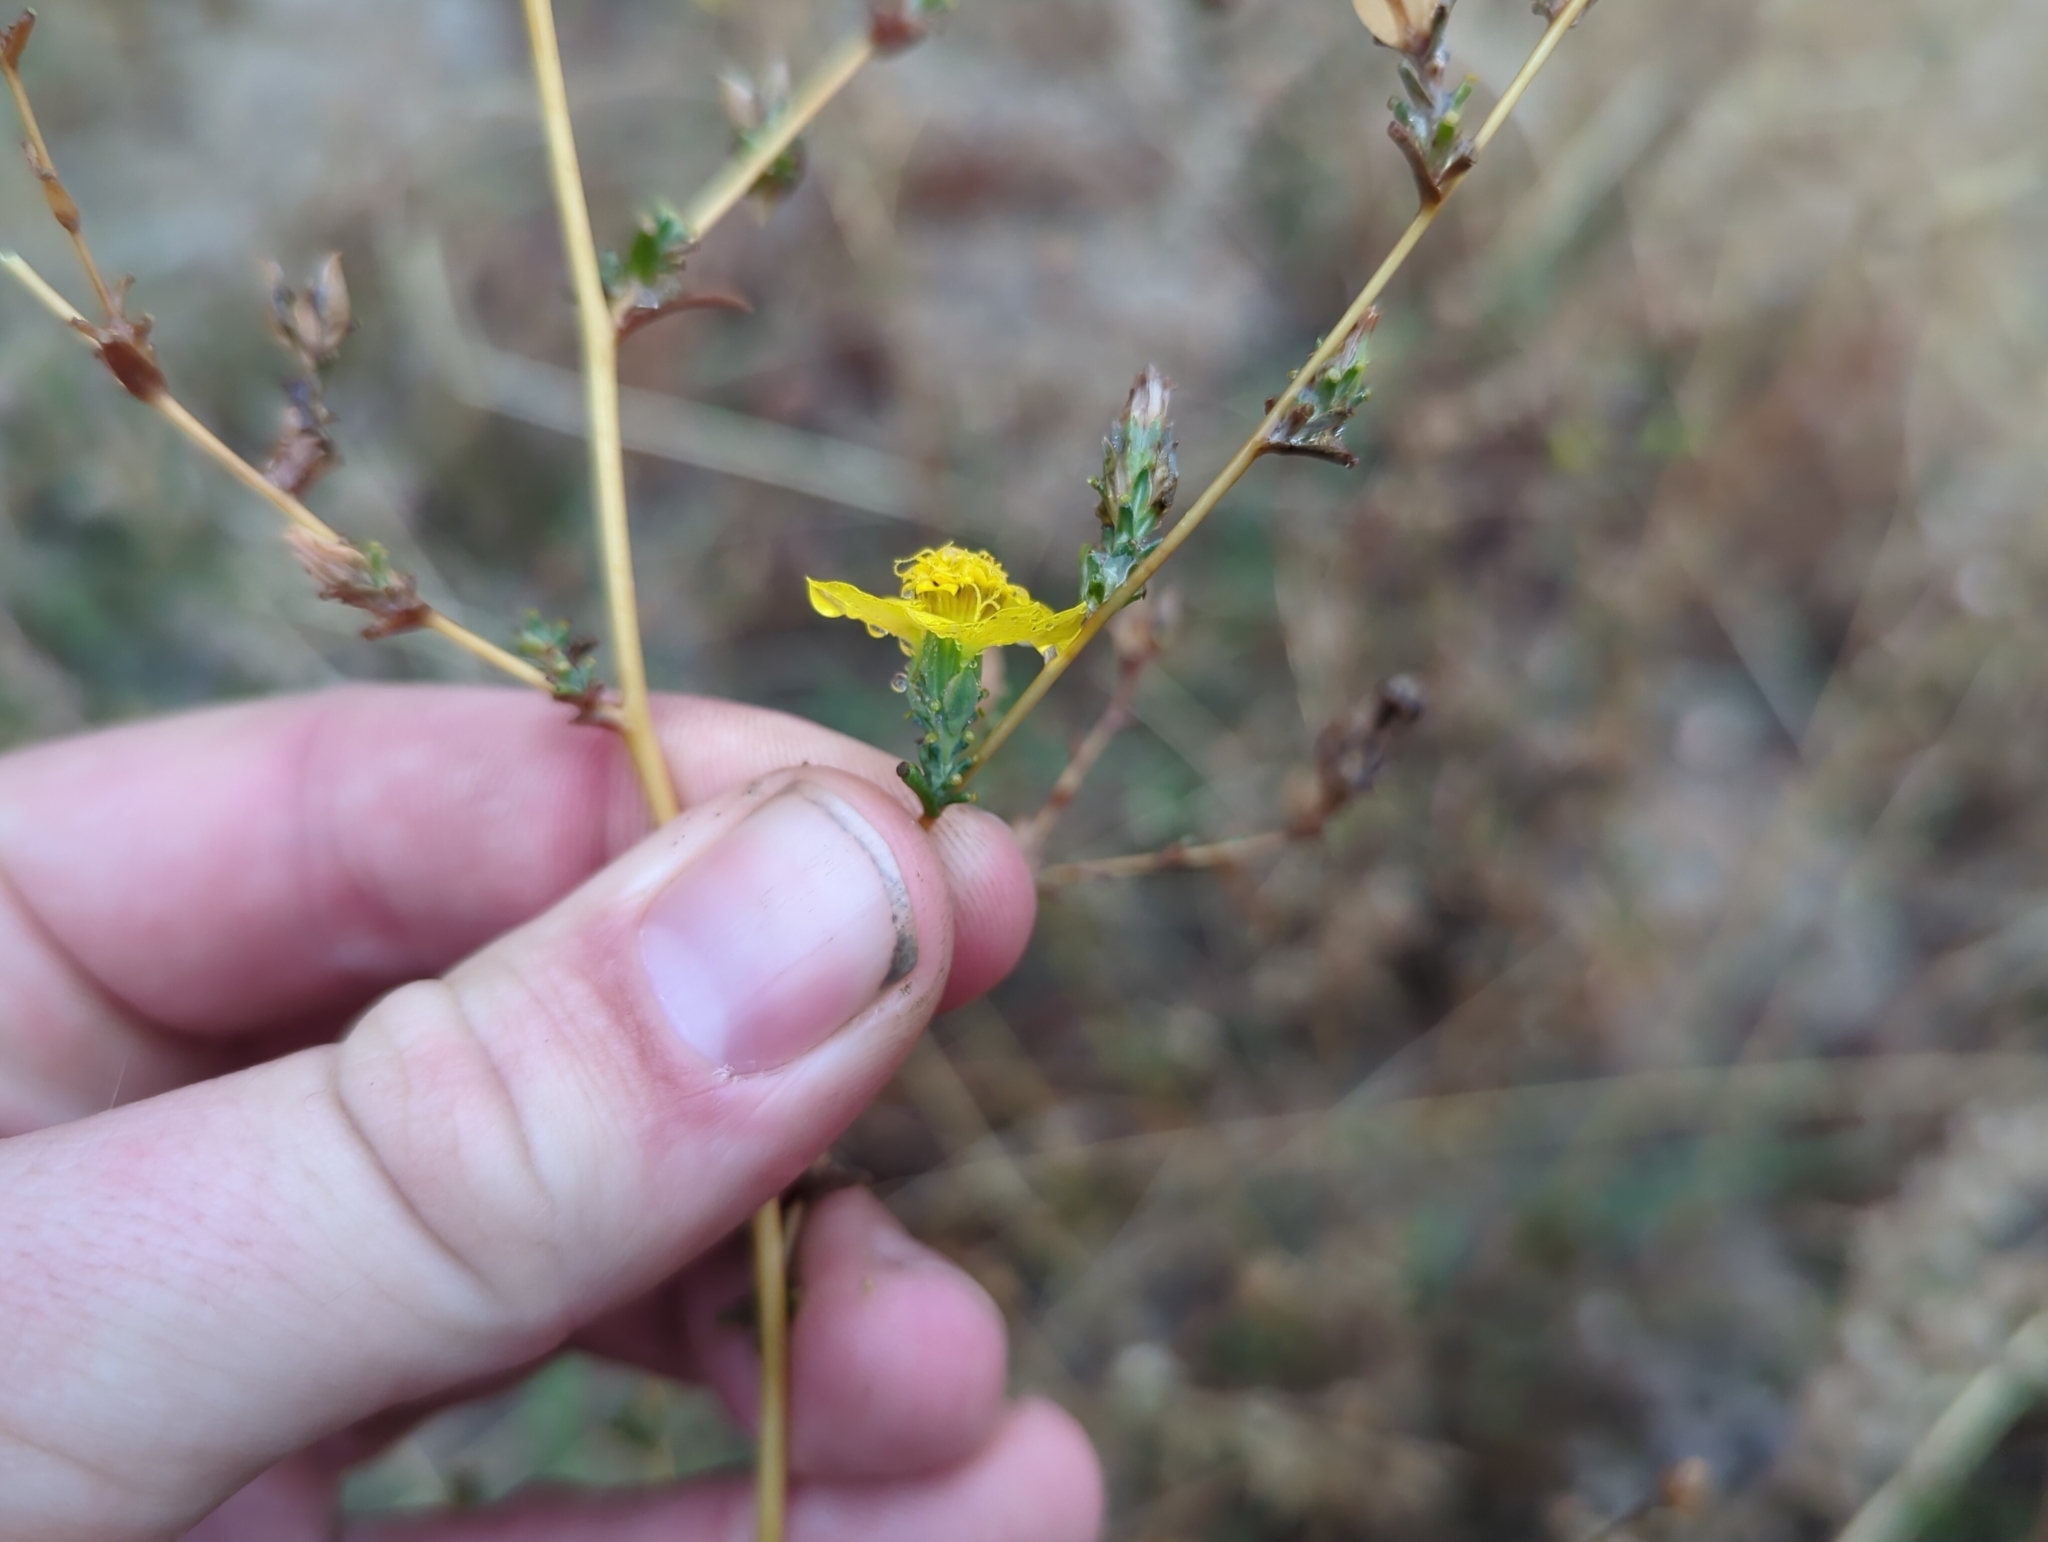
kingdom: Plantae
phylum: Tracheophyta
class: Magnoliopsida
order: Asterales
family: Asteraceae
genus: Calycadenia
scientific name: Calycadenia truncata
